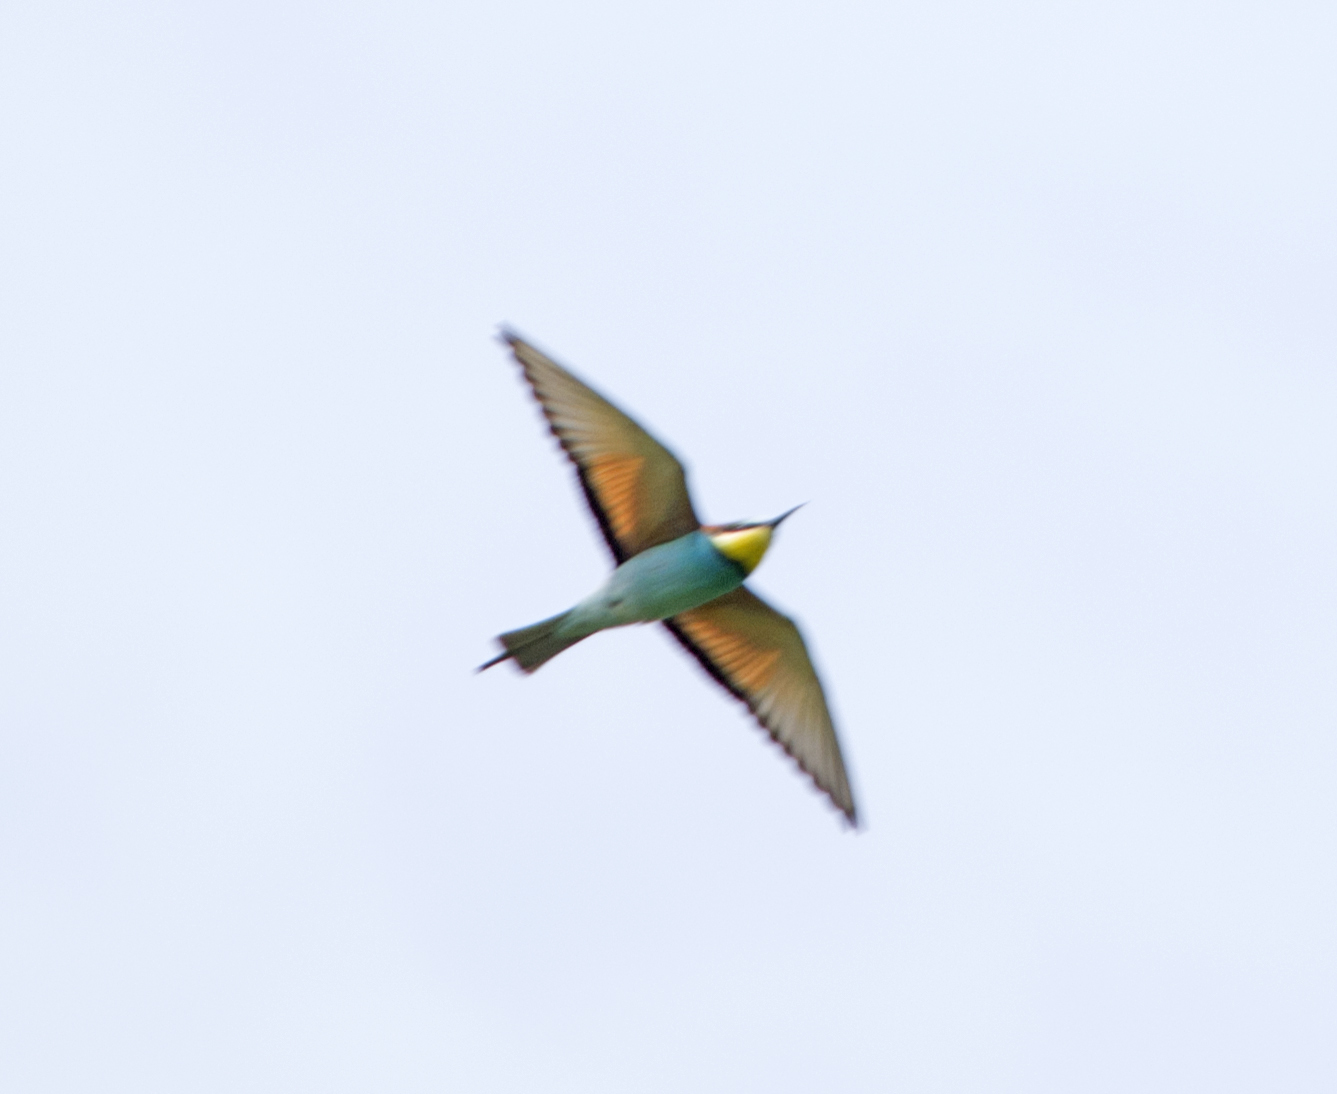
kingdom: Animalia
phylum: Chordata
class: Aves
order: Coraciiformes
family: Meropidae
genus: Merops
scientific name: Merops apiaster
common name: European bee-eater
